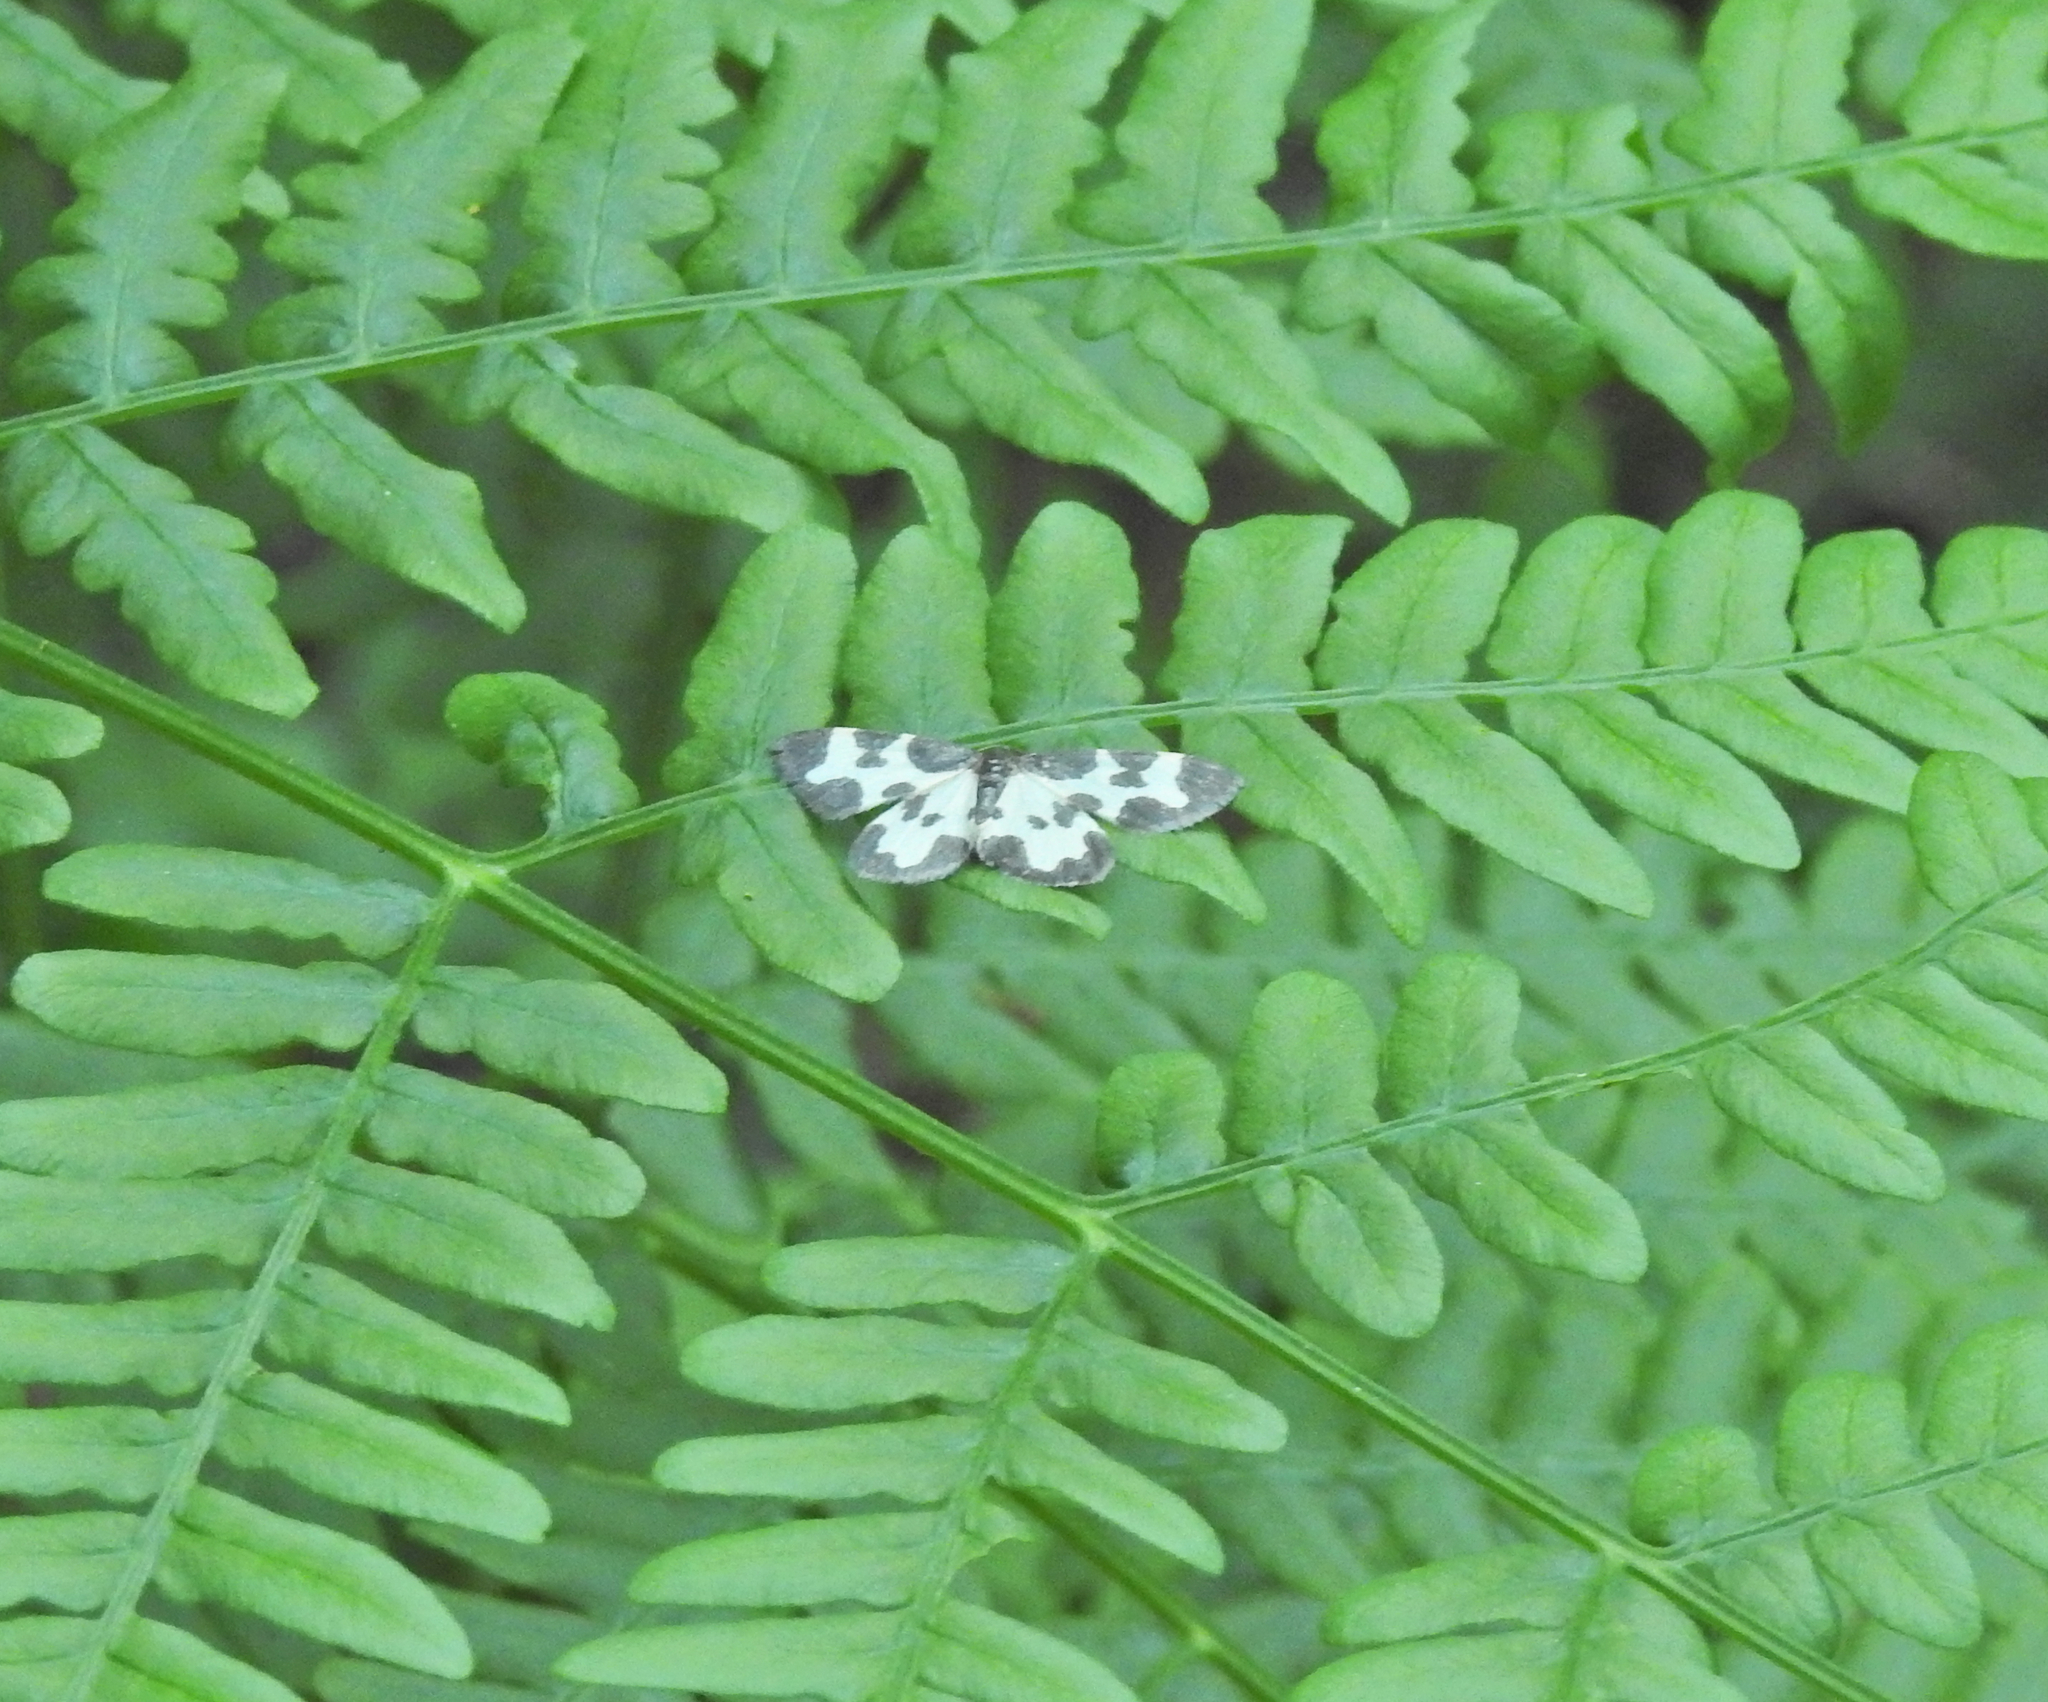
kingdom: Animalia
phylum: Arthropoda
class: Insecta
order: Lepidoptera
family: Geometridae
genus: Lomaspilis
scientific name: Lomaspilis marginata
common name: Clouded border
